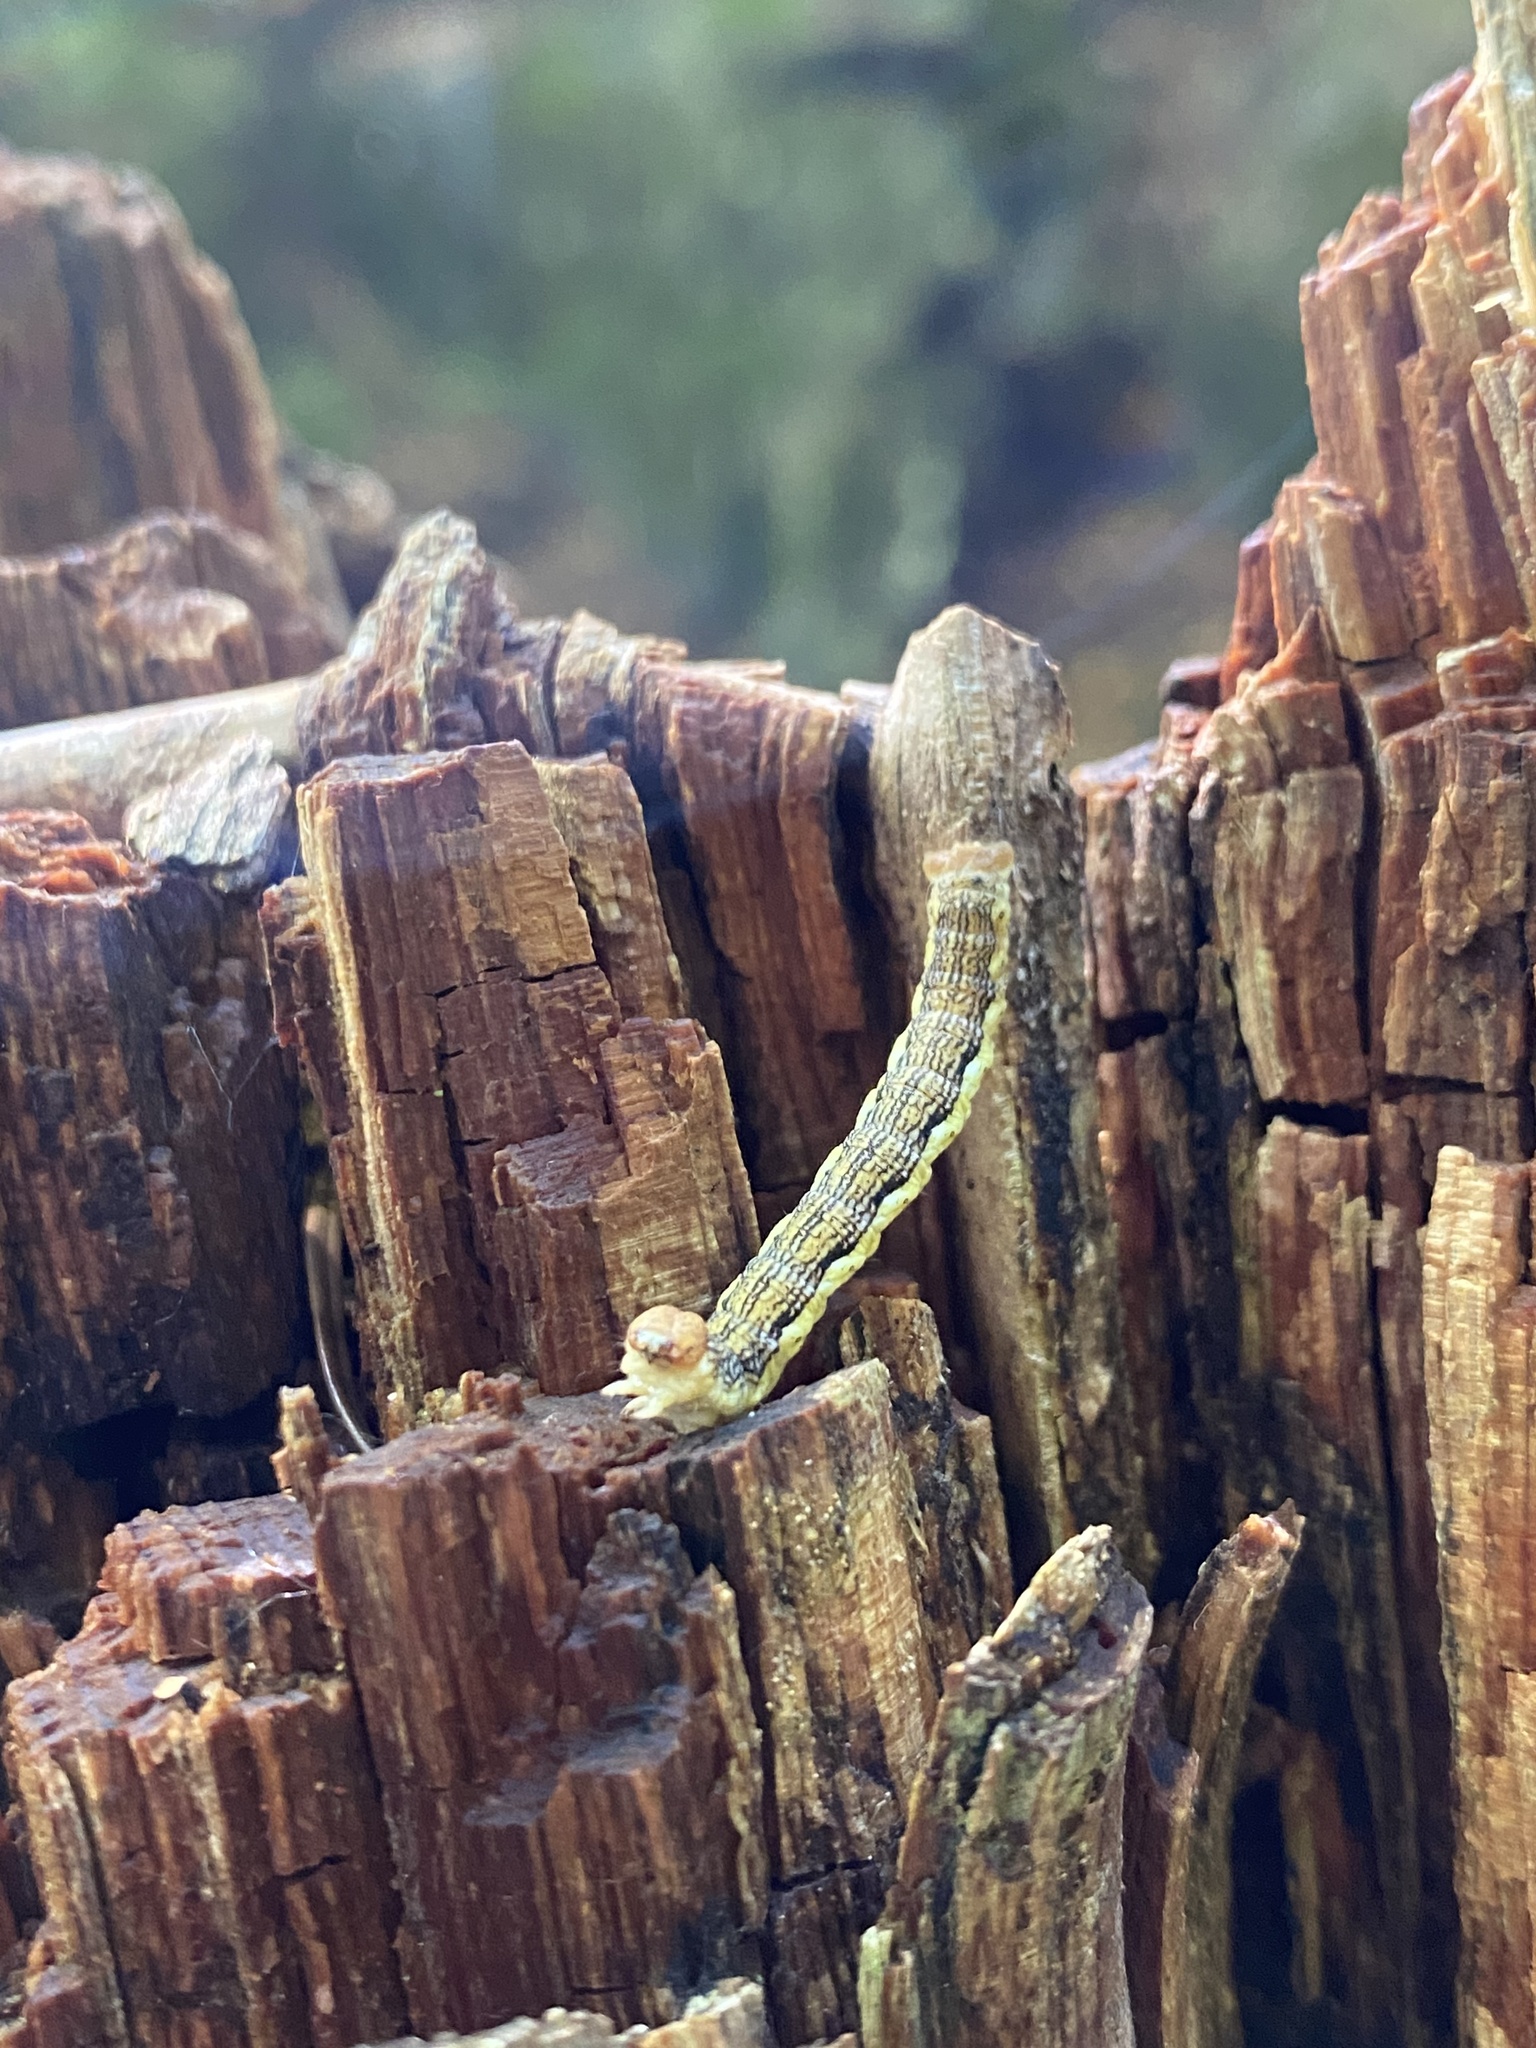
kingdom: Animalia
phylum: Arthropoda
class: Insecta
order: Lepidoptera
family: Geometridae
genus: Erannis
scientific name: Erannis defoliaria
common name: Mottled umber
